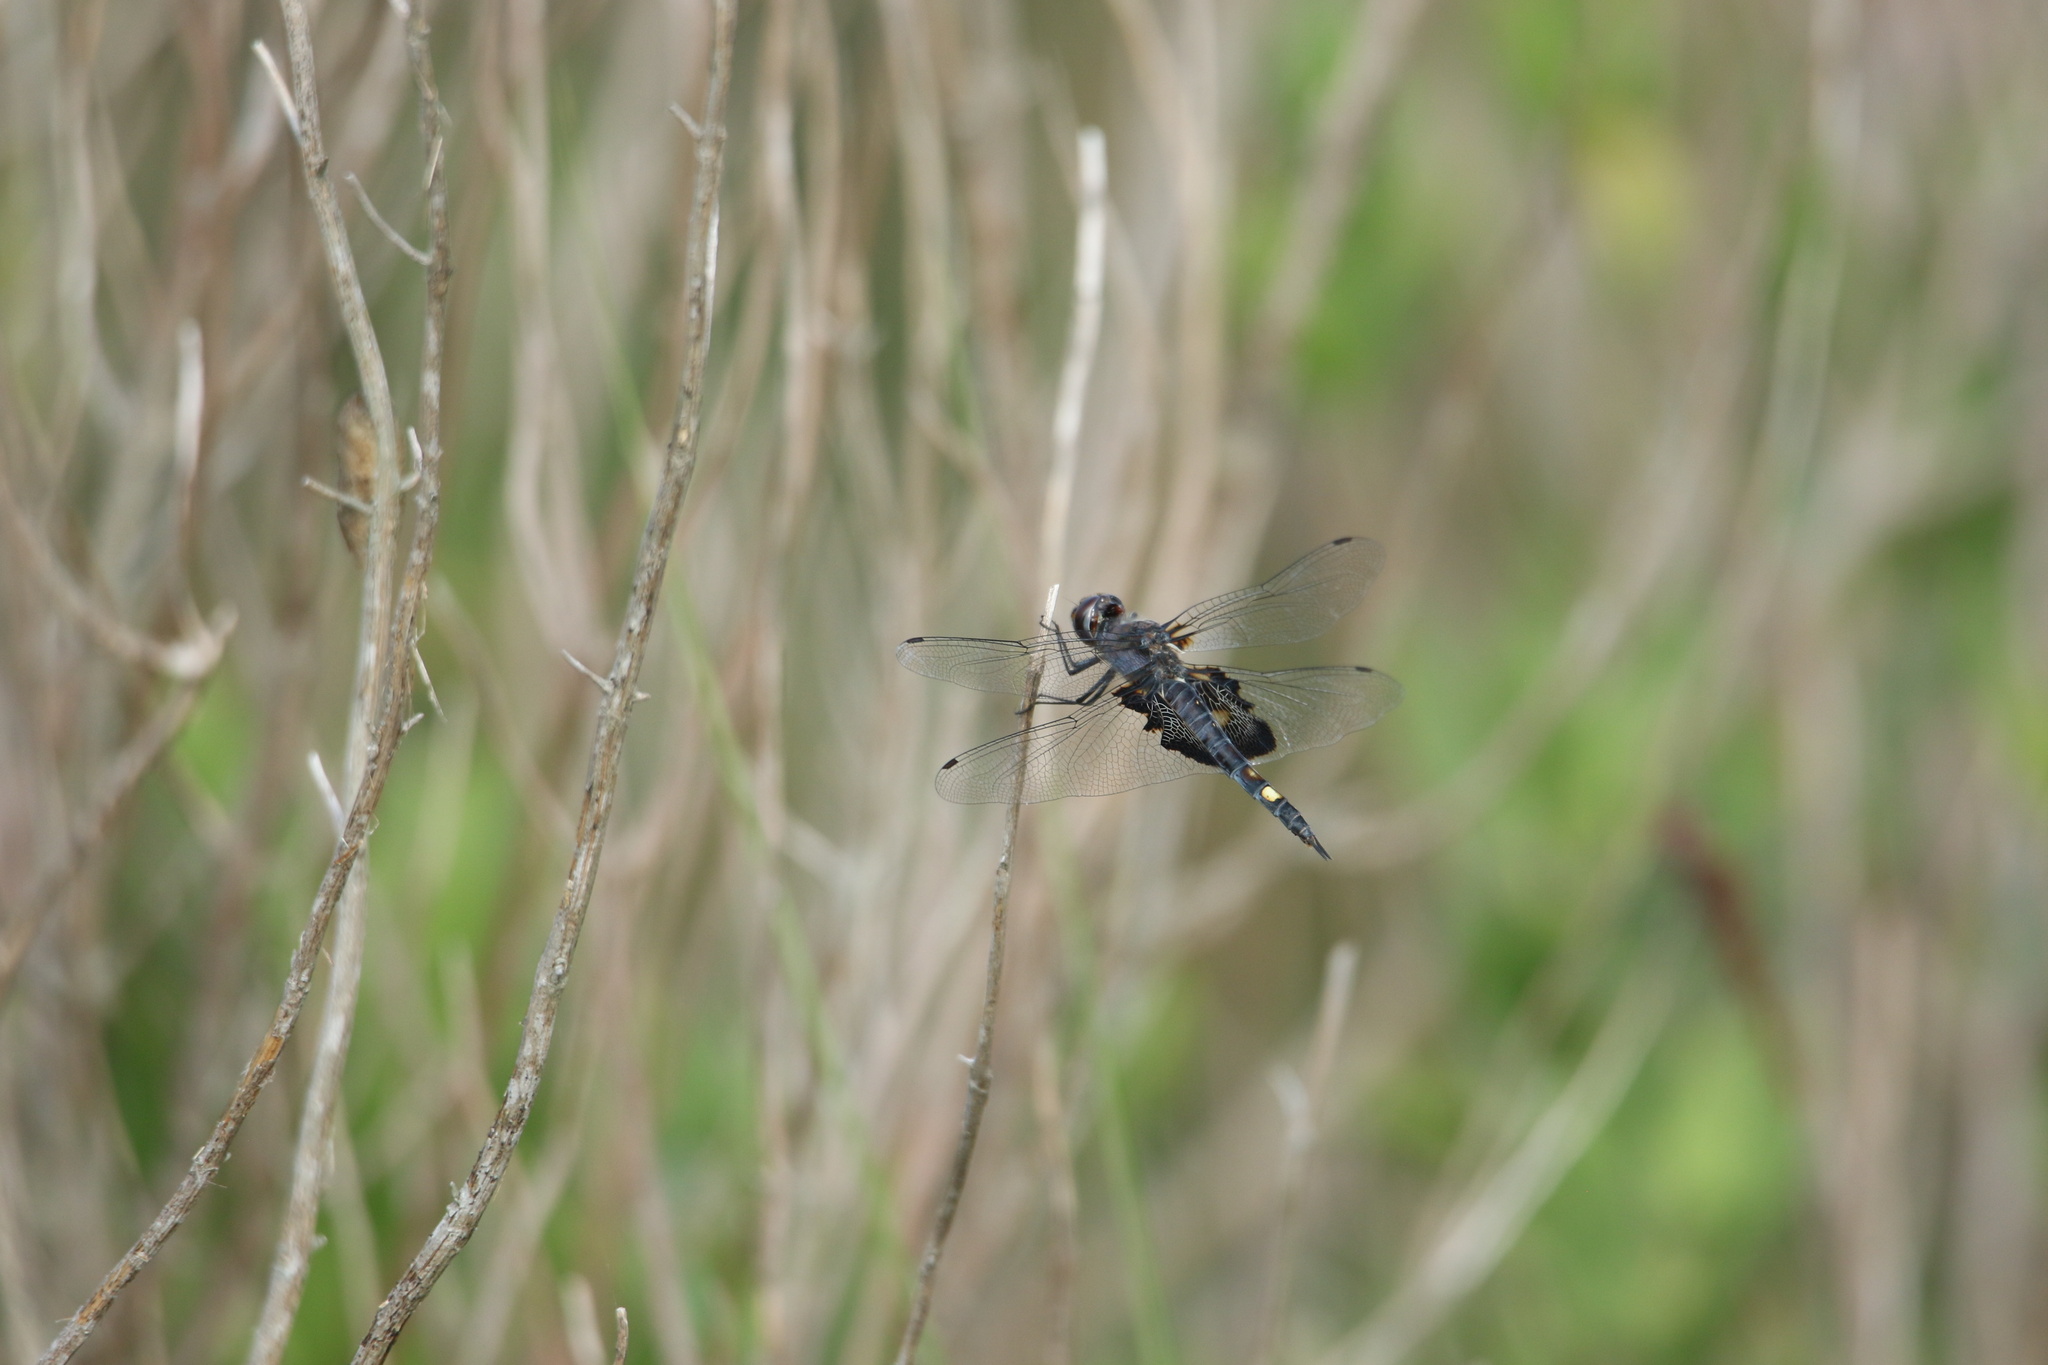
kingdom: Animalia
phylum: Arthropoda
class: Insecta
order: Odonata
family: Libellulidae
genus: Tramea
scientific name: Tramea lacerata
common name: Black saddlebags
